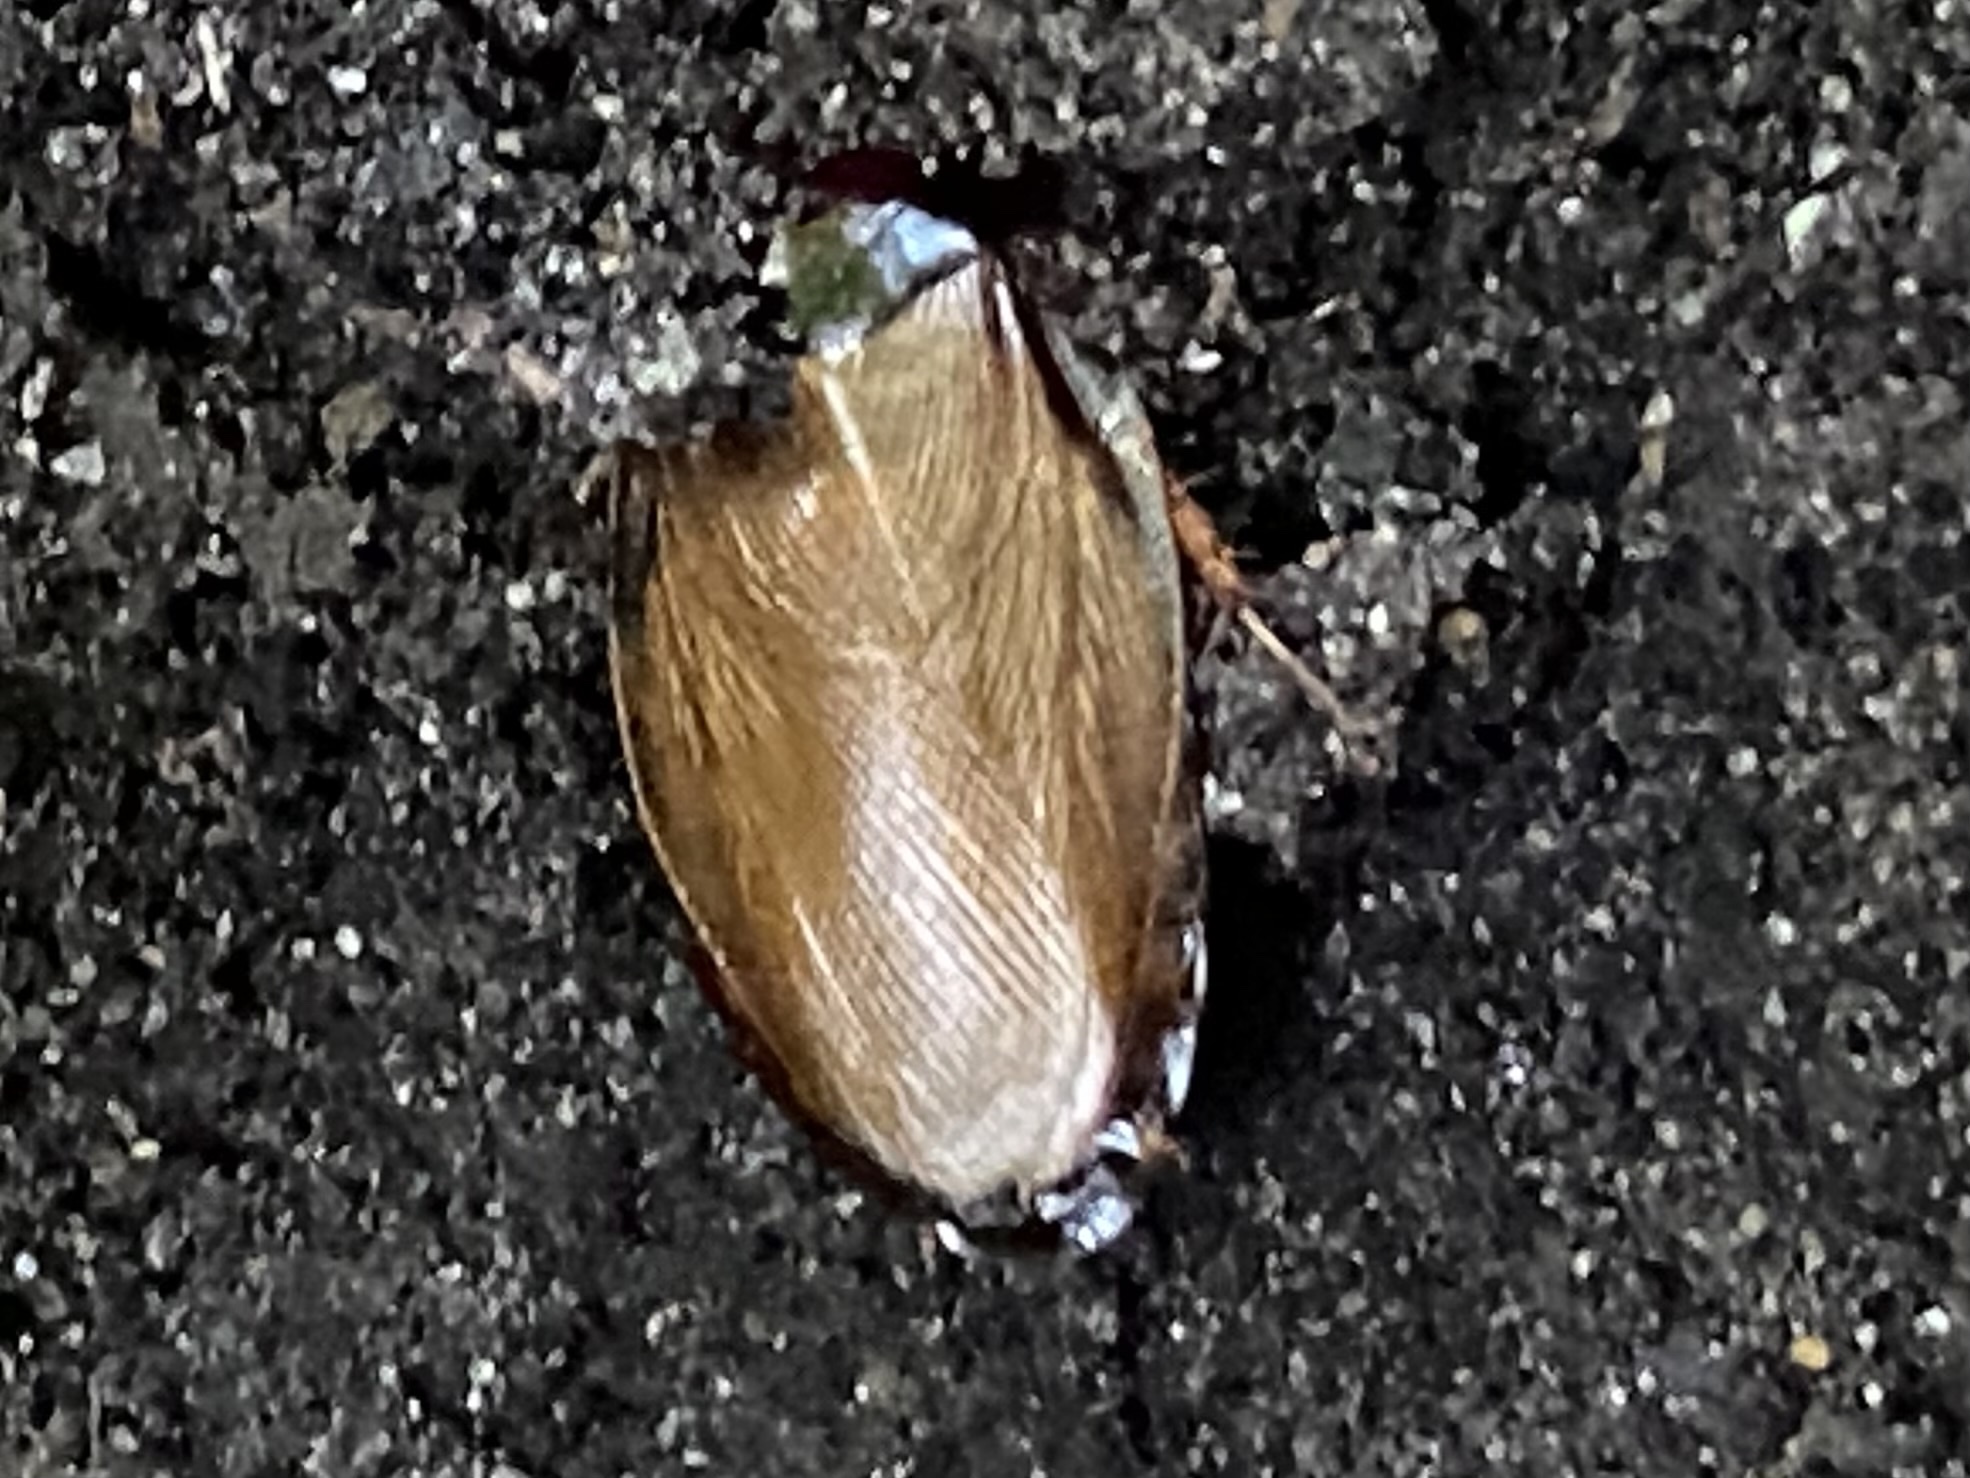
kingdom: Animalia
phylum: Arthropoda
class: Insecta
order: Blattodea
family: Blaberidae
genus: Pycnoscelus
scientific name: Pycnoscelus surinamensis
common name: Surinam cockroach
